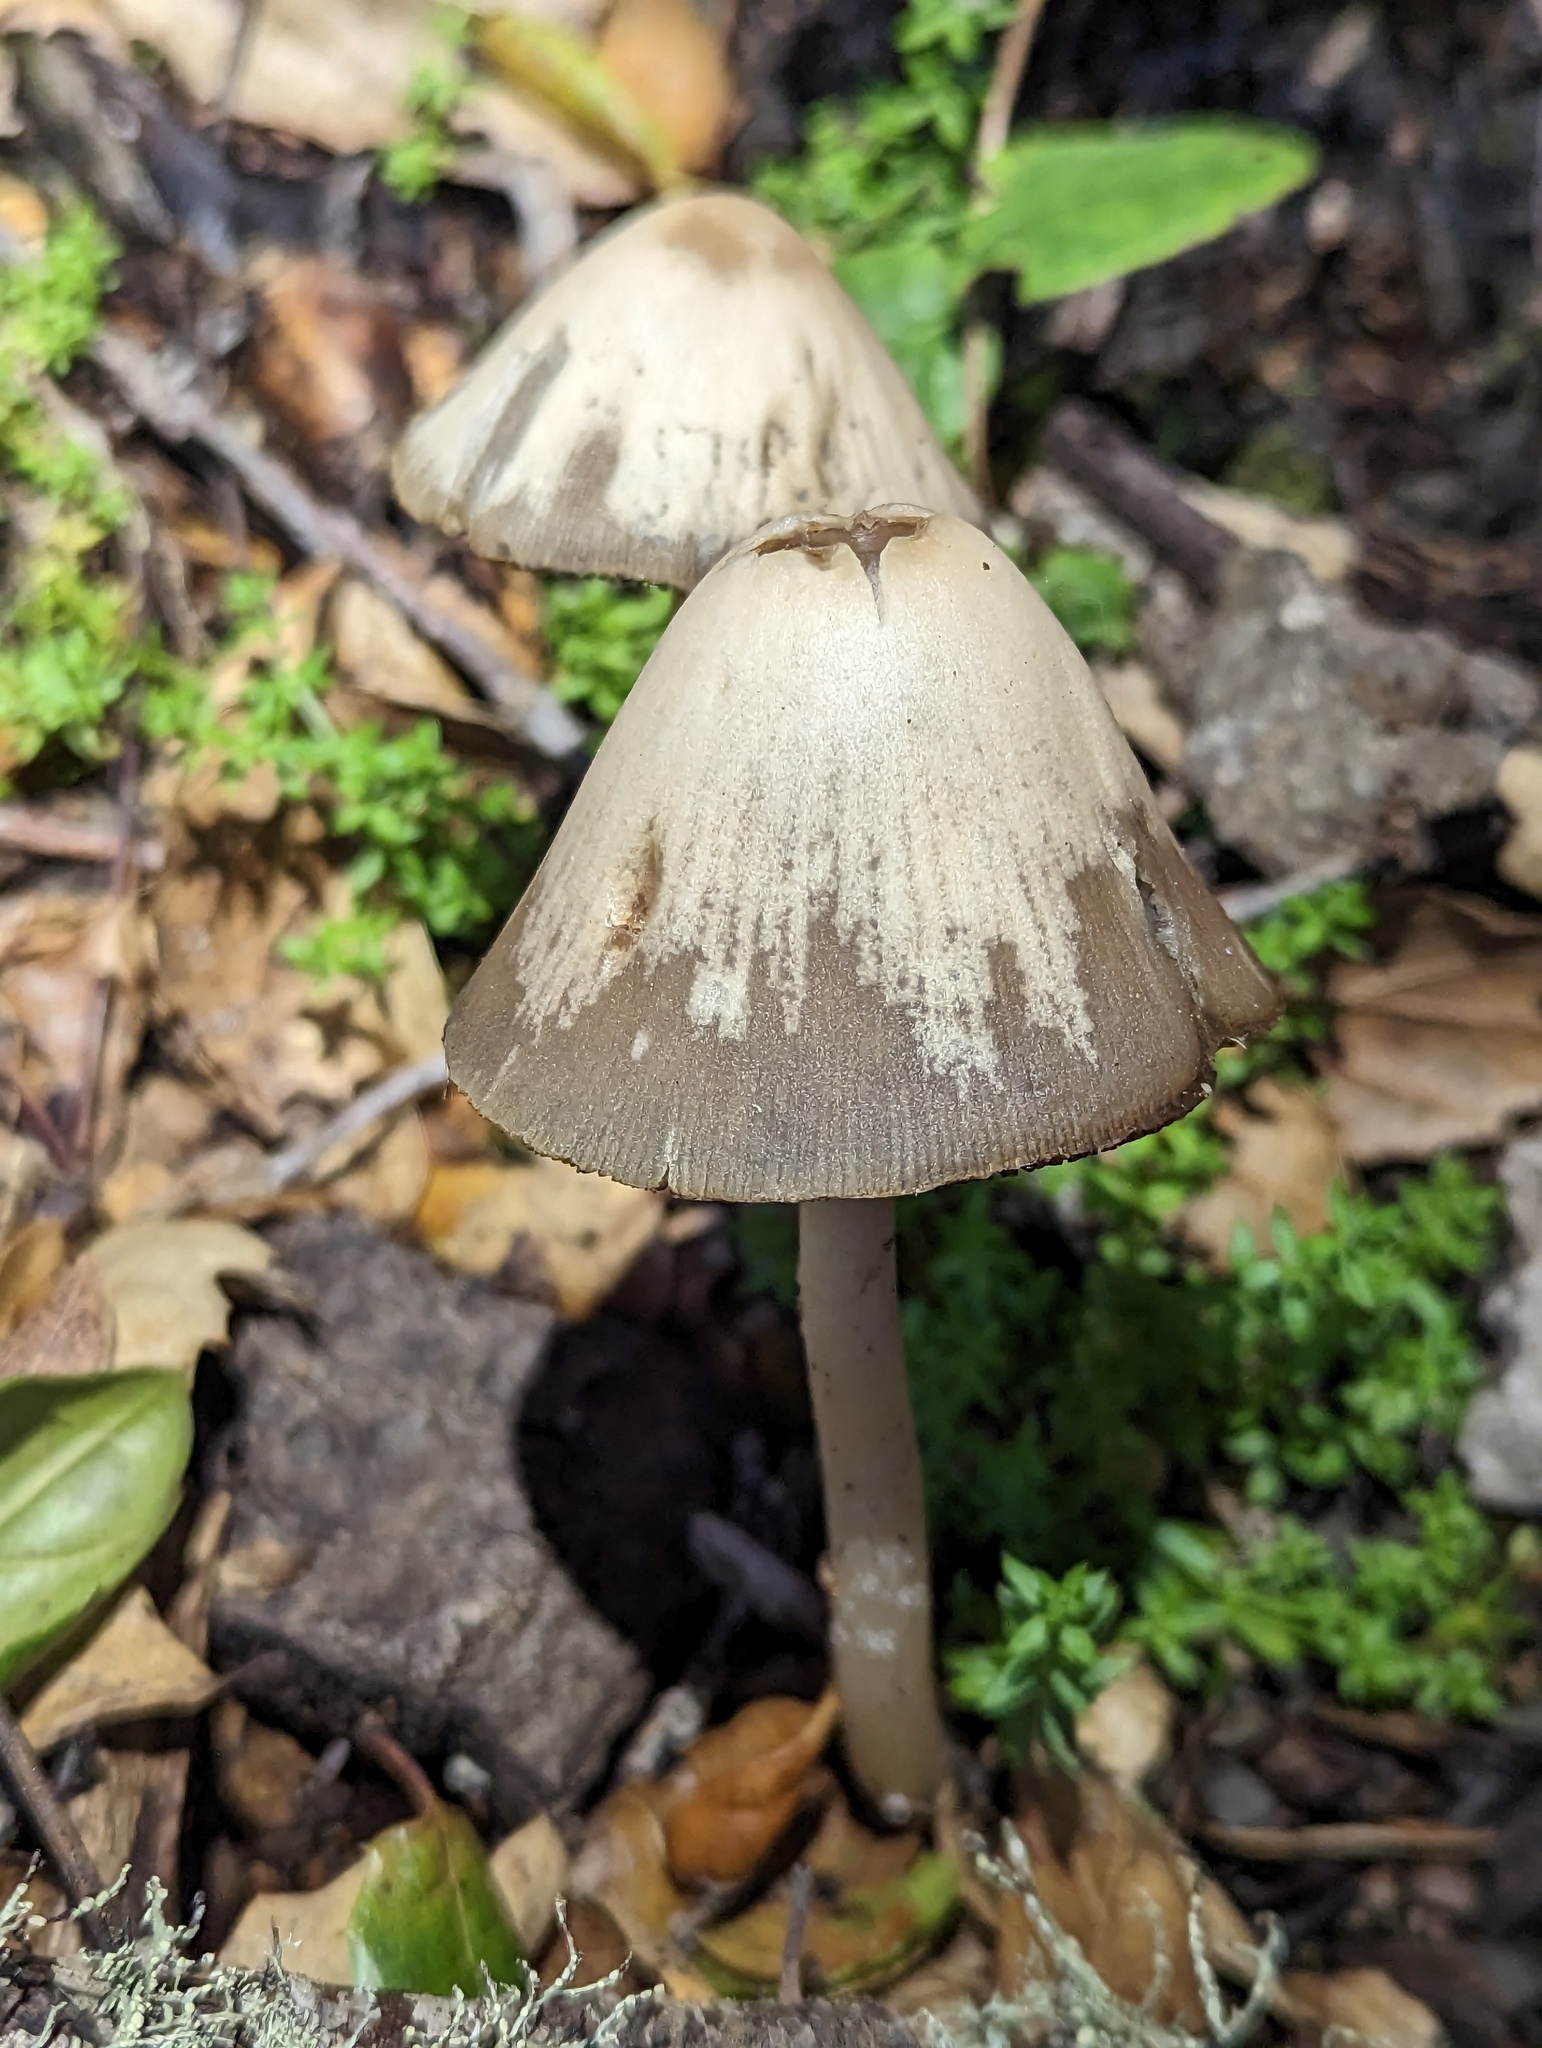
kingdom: Fungi
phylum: Basidiomycota
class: Agaricomycetes
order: Agaricales
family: Psathyrellaceae
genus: Psathyrella
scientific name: Psathyrella longipes
